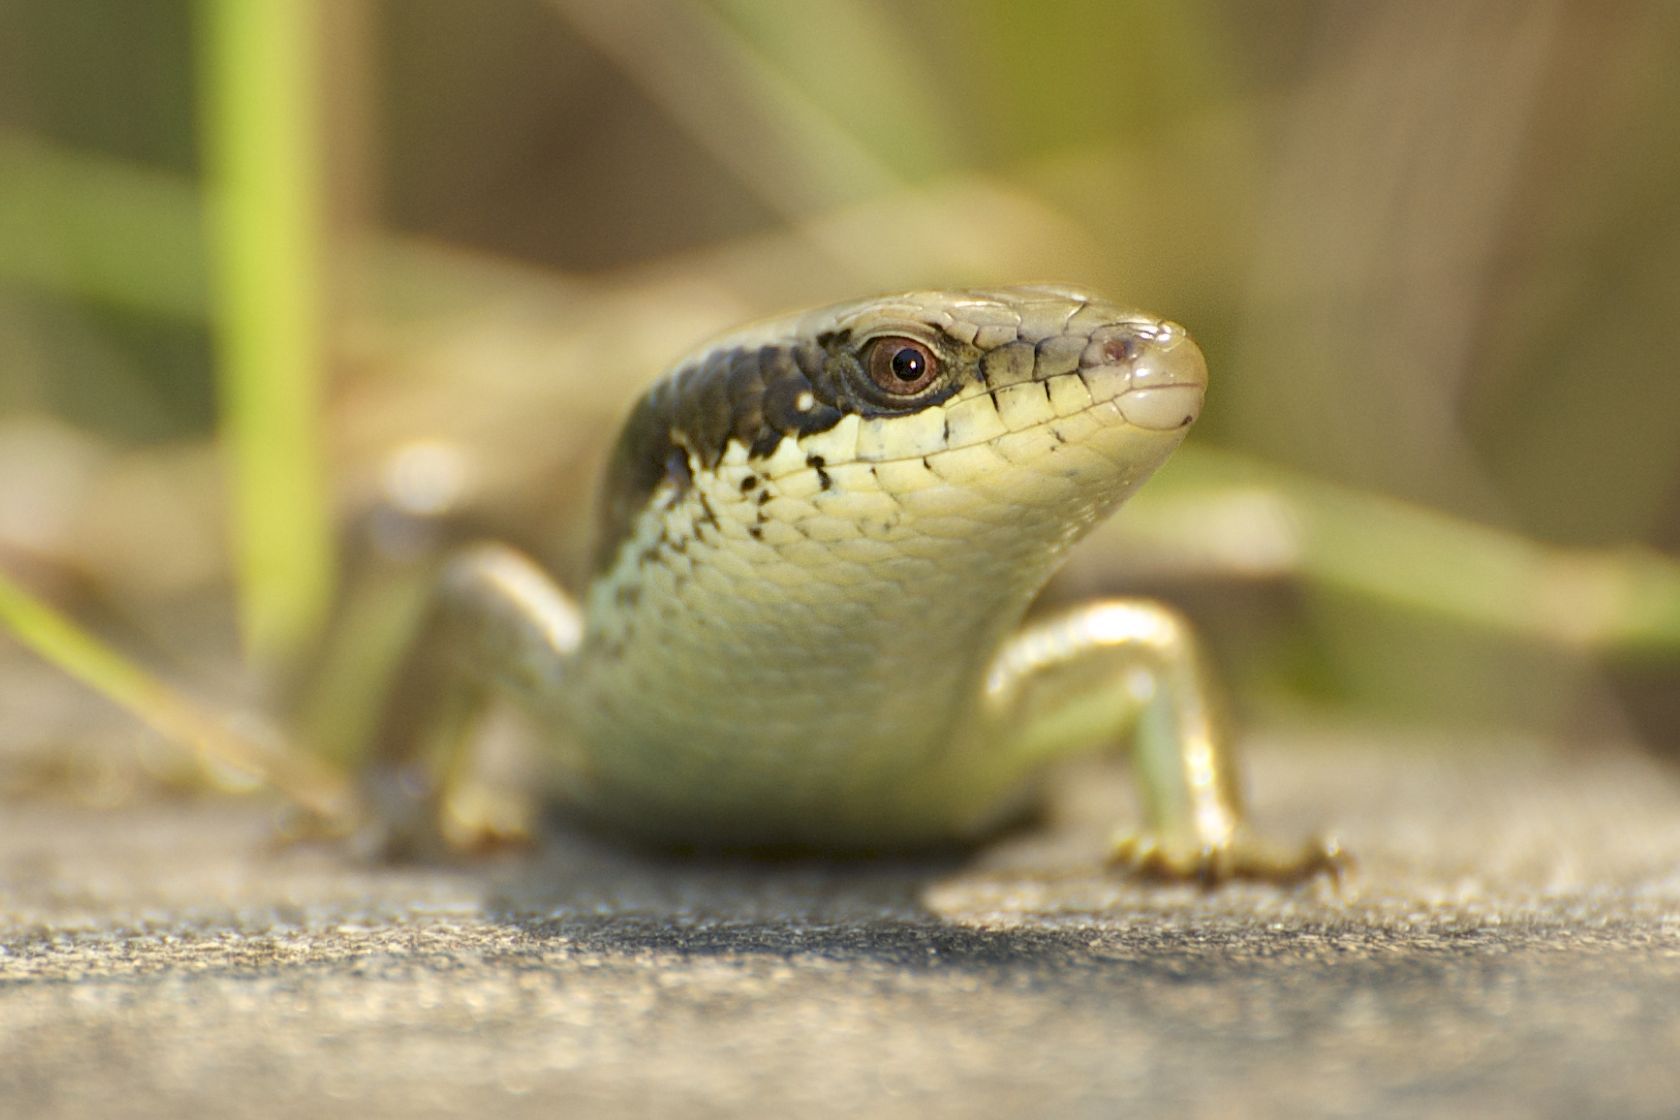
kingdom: Animalia
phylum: Chordata
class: Squamata
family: Scincidae
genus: Eutropis
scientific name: Eutropis longicaudata
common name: Long-tailed sun skink
